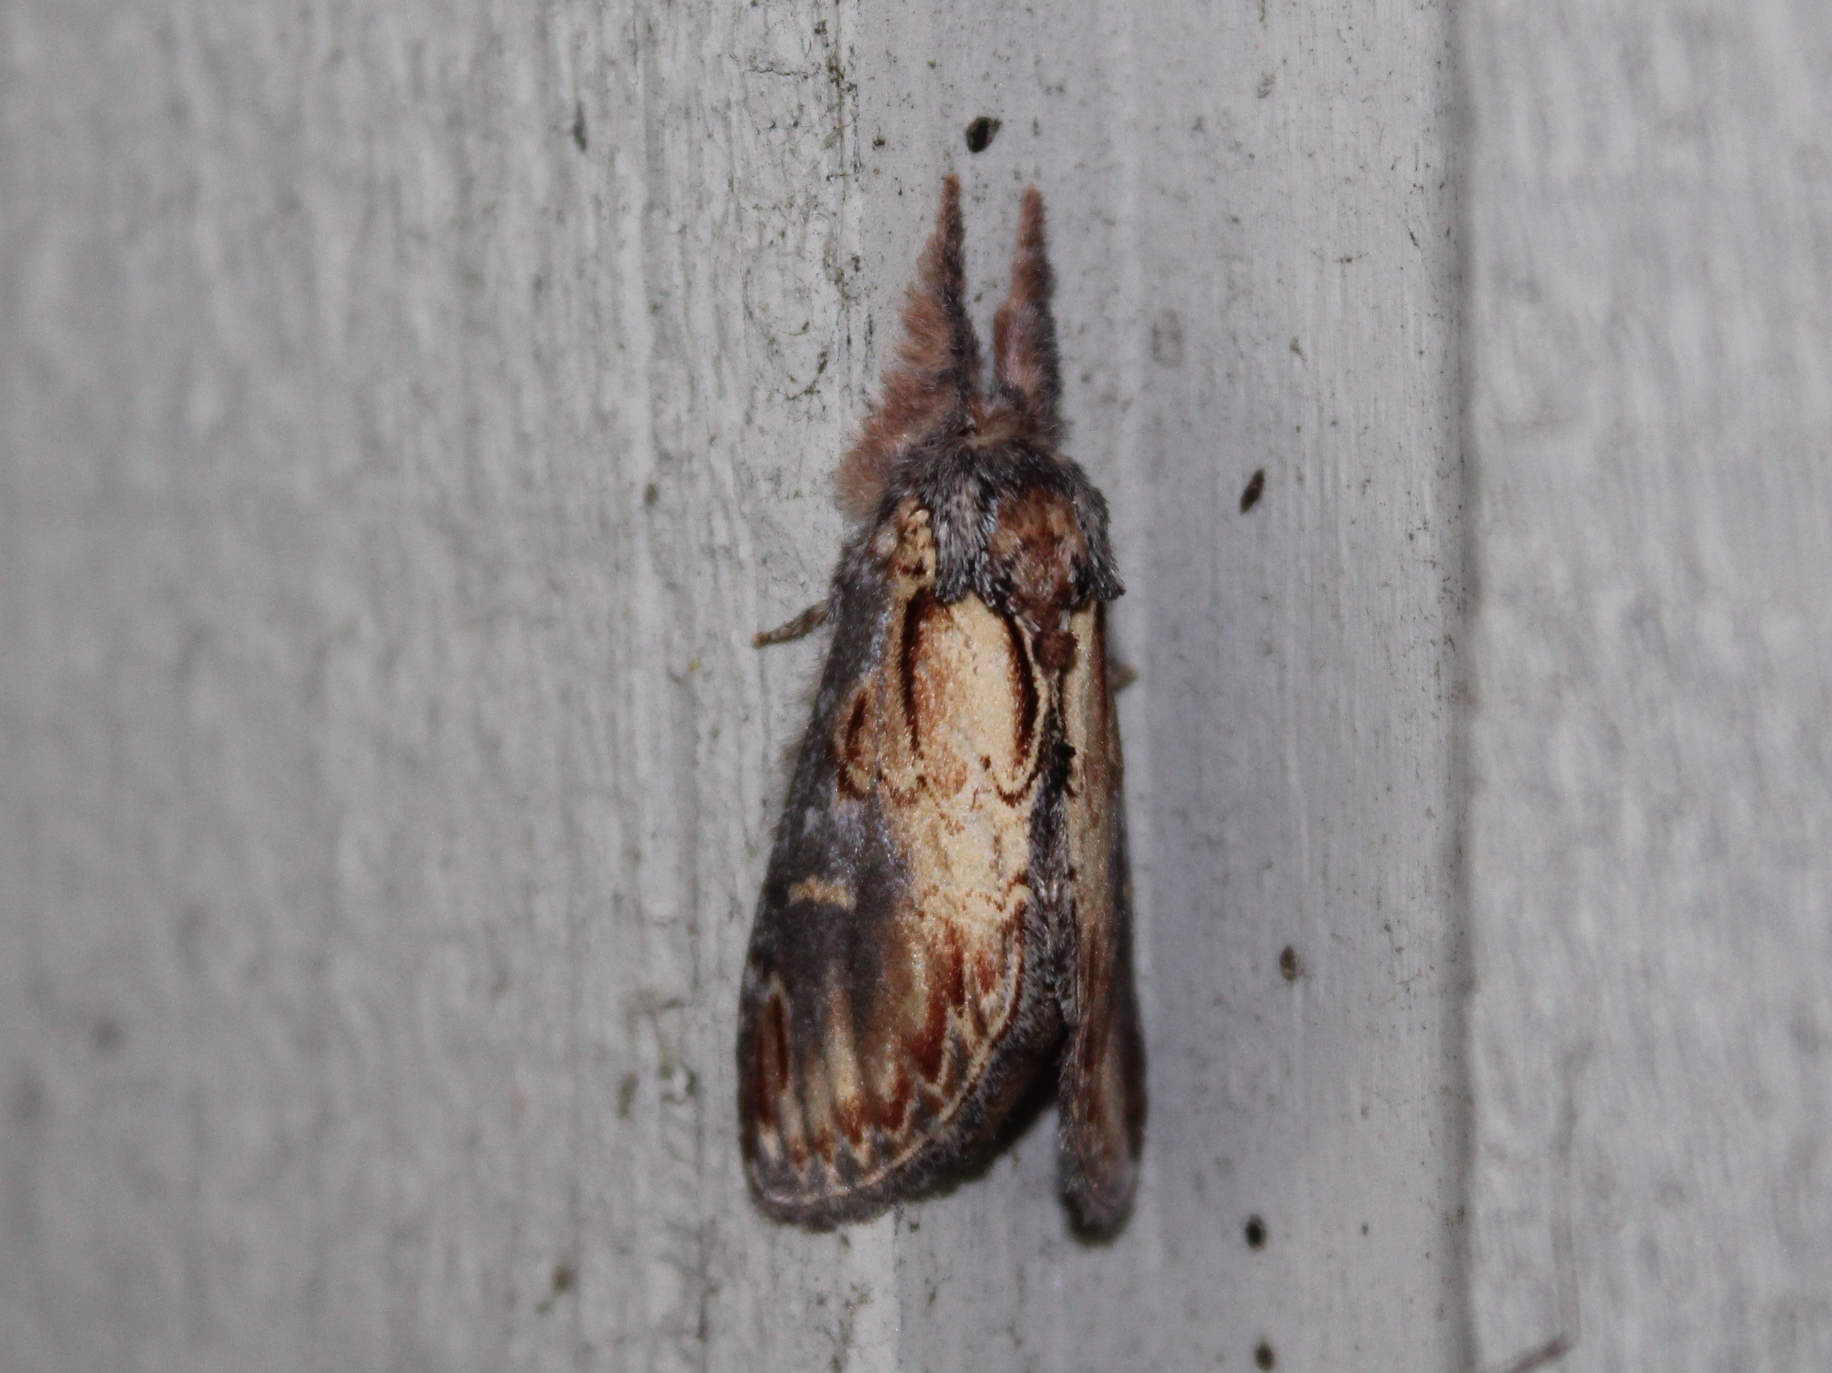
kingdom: Animalia
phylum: Arthropoda
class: Insecta
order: Lepidoptera
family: Notodontidae
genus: Notodonta
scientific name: Notodonta scitipennis
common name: Finned-willow prominent moth
